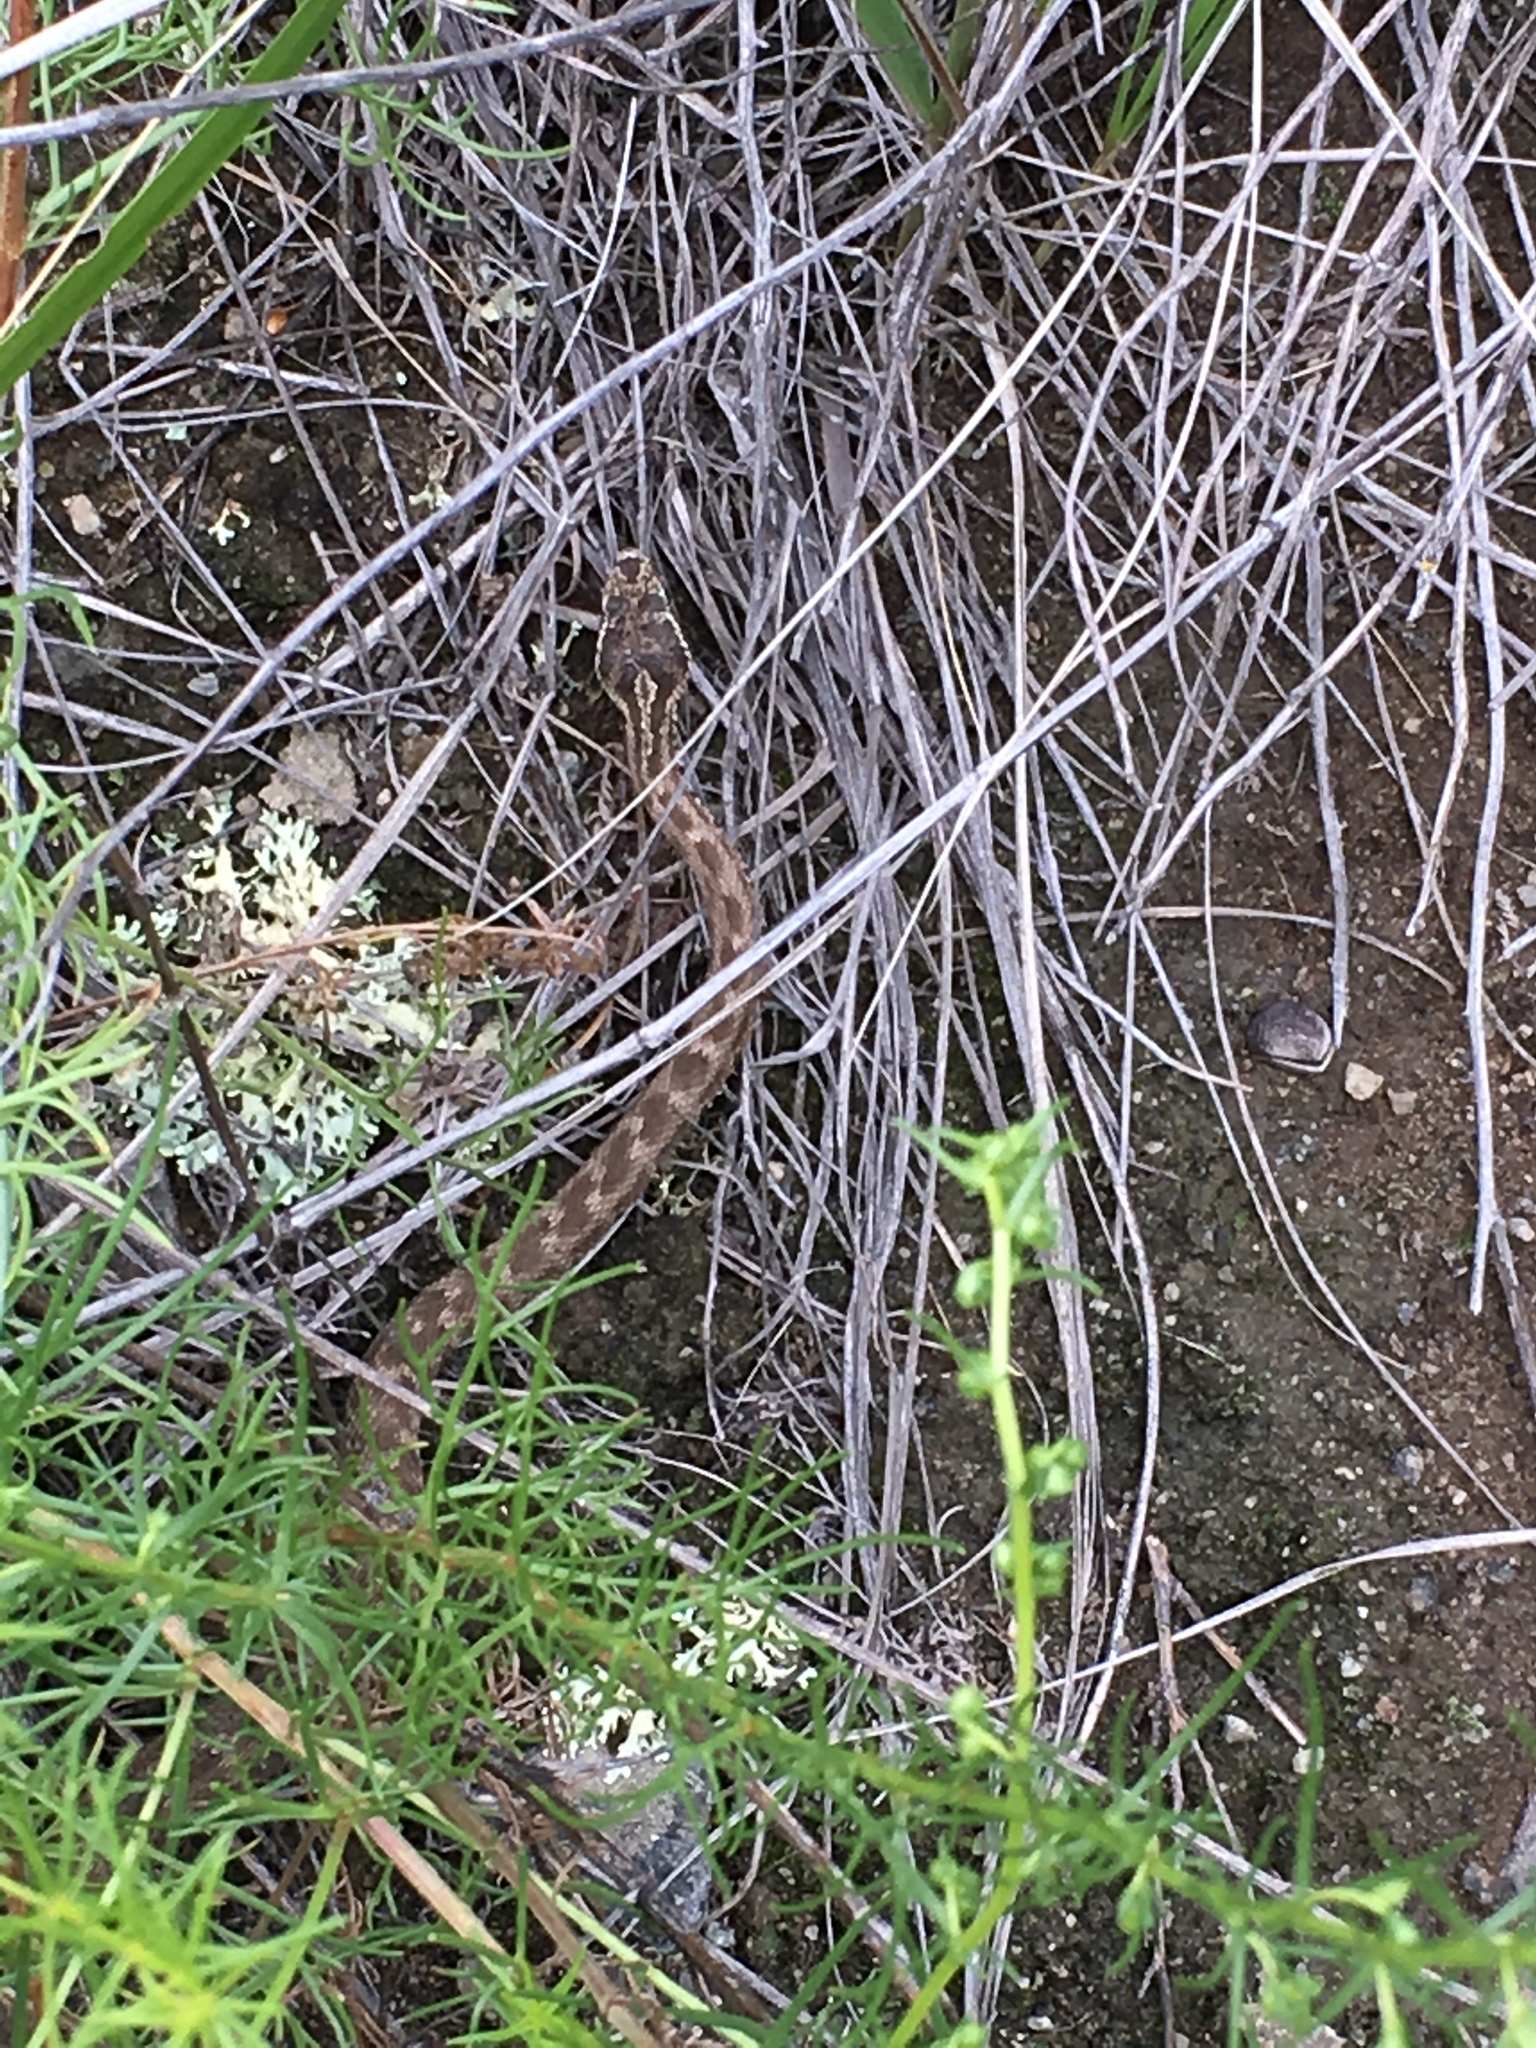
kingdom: Animalia
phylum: Chordata
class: Squamata
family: Viperidae
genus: Gloydius
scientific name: Gloydius halys
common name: Halys pit viper
